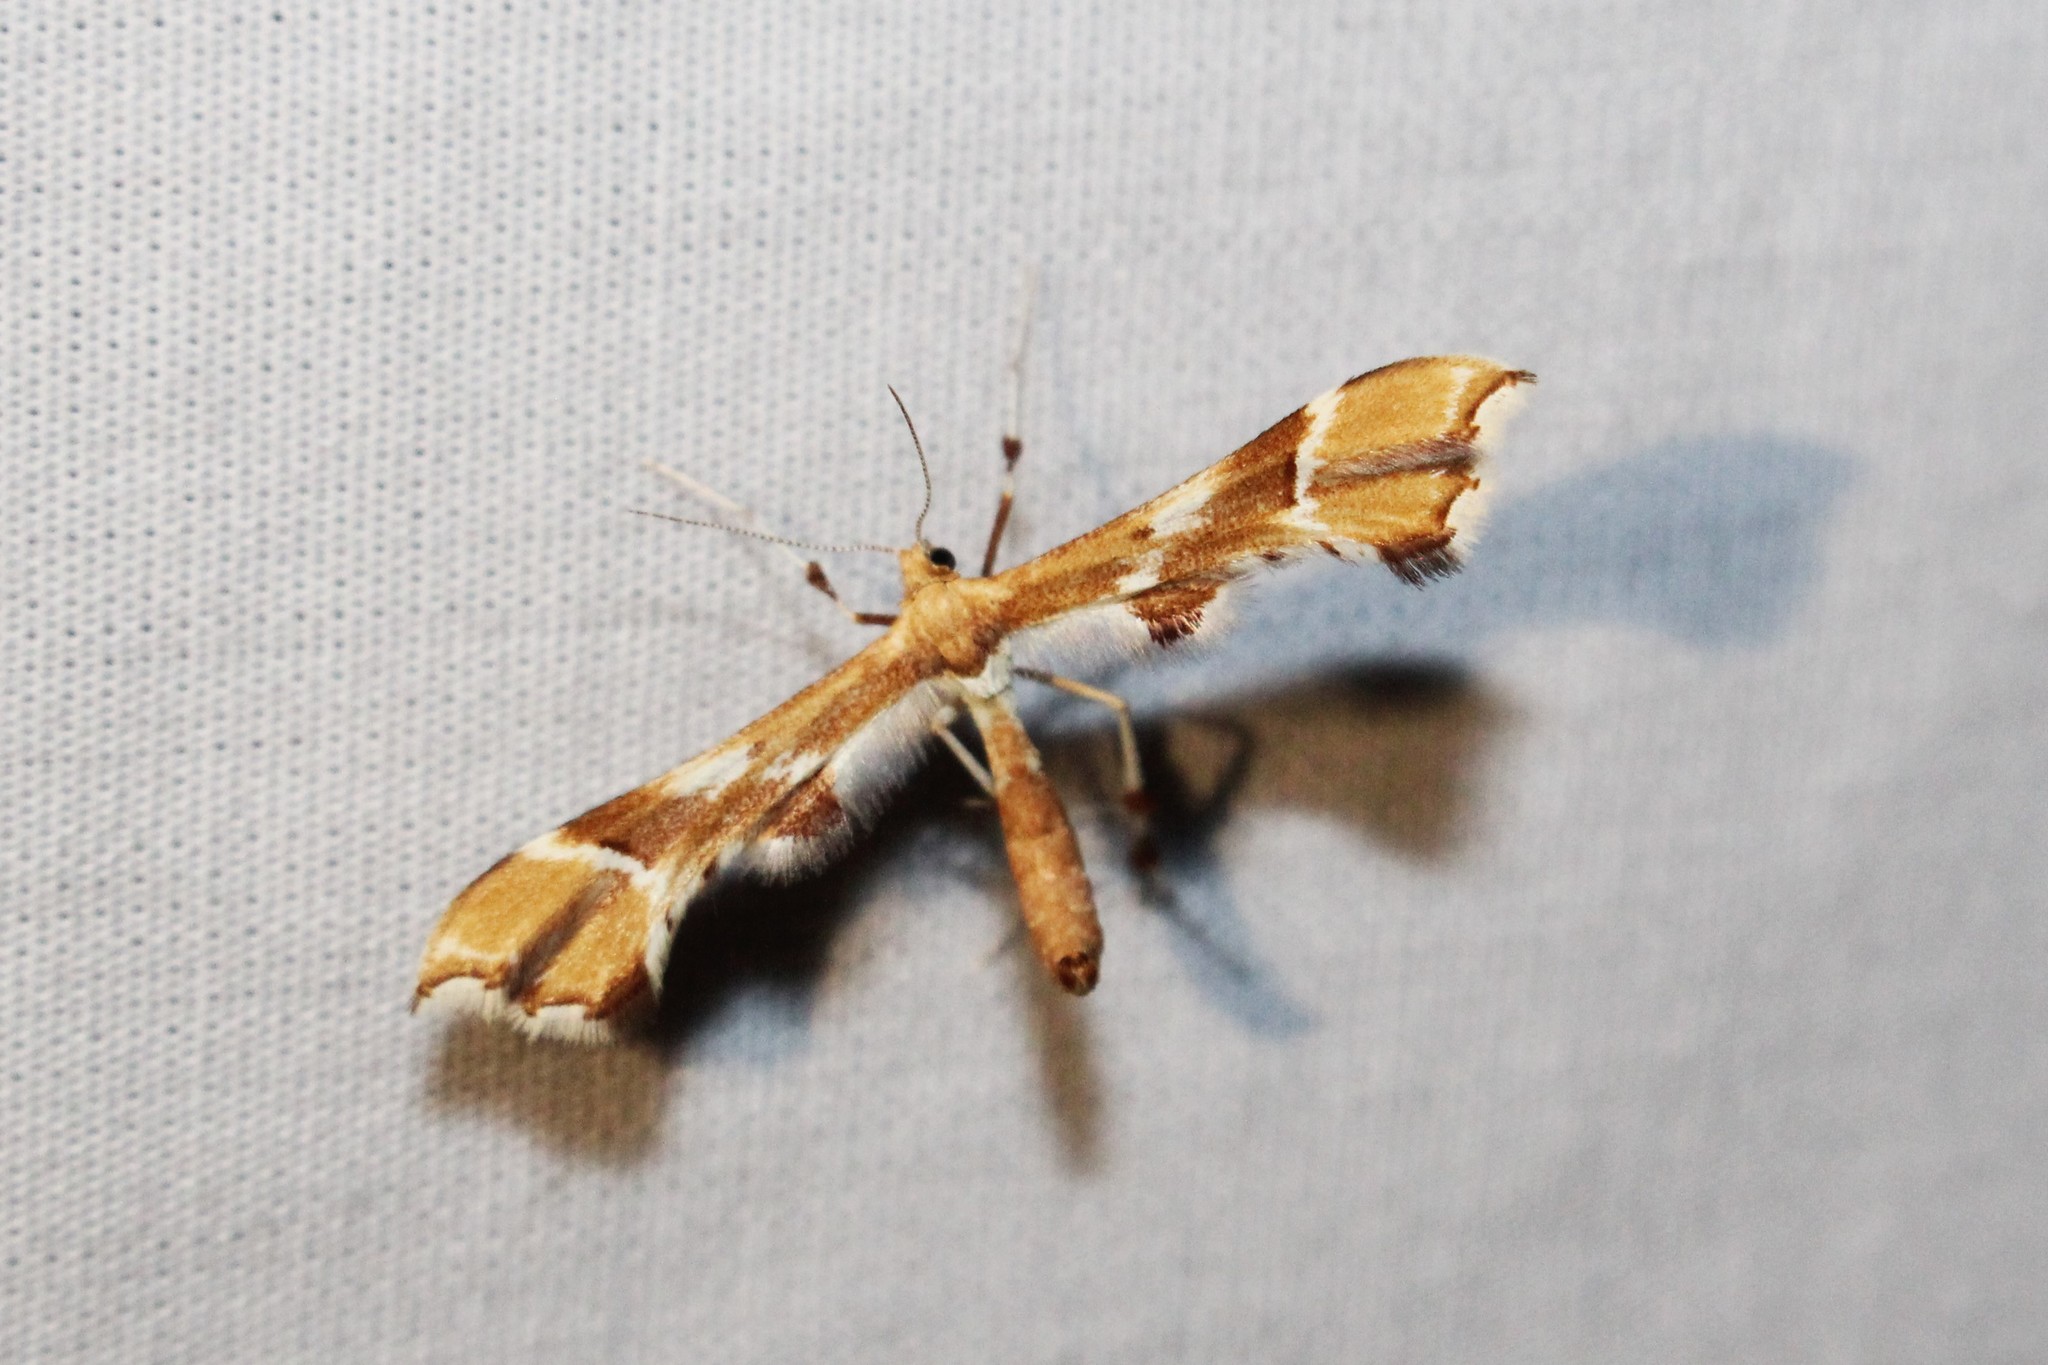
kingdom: Animalia
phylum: Arthropoda
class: Insecta
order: Lepidoptera
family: Pterophoridae
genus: Cnaemidophorus
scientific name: Cnaemidophorus rhododactyla
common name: Rose plume
